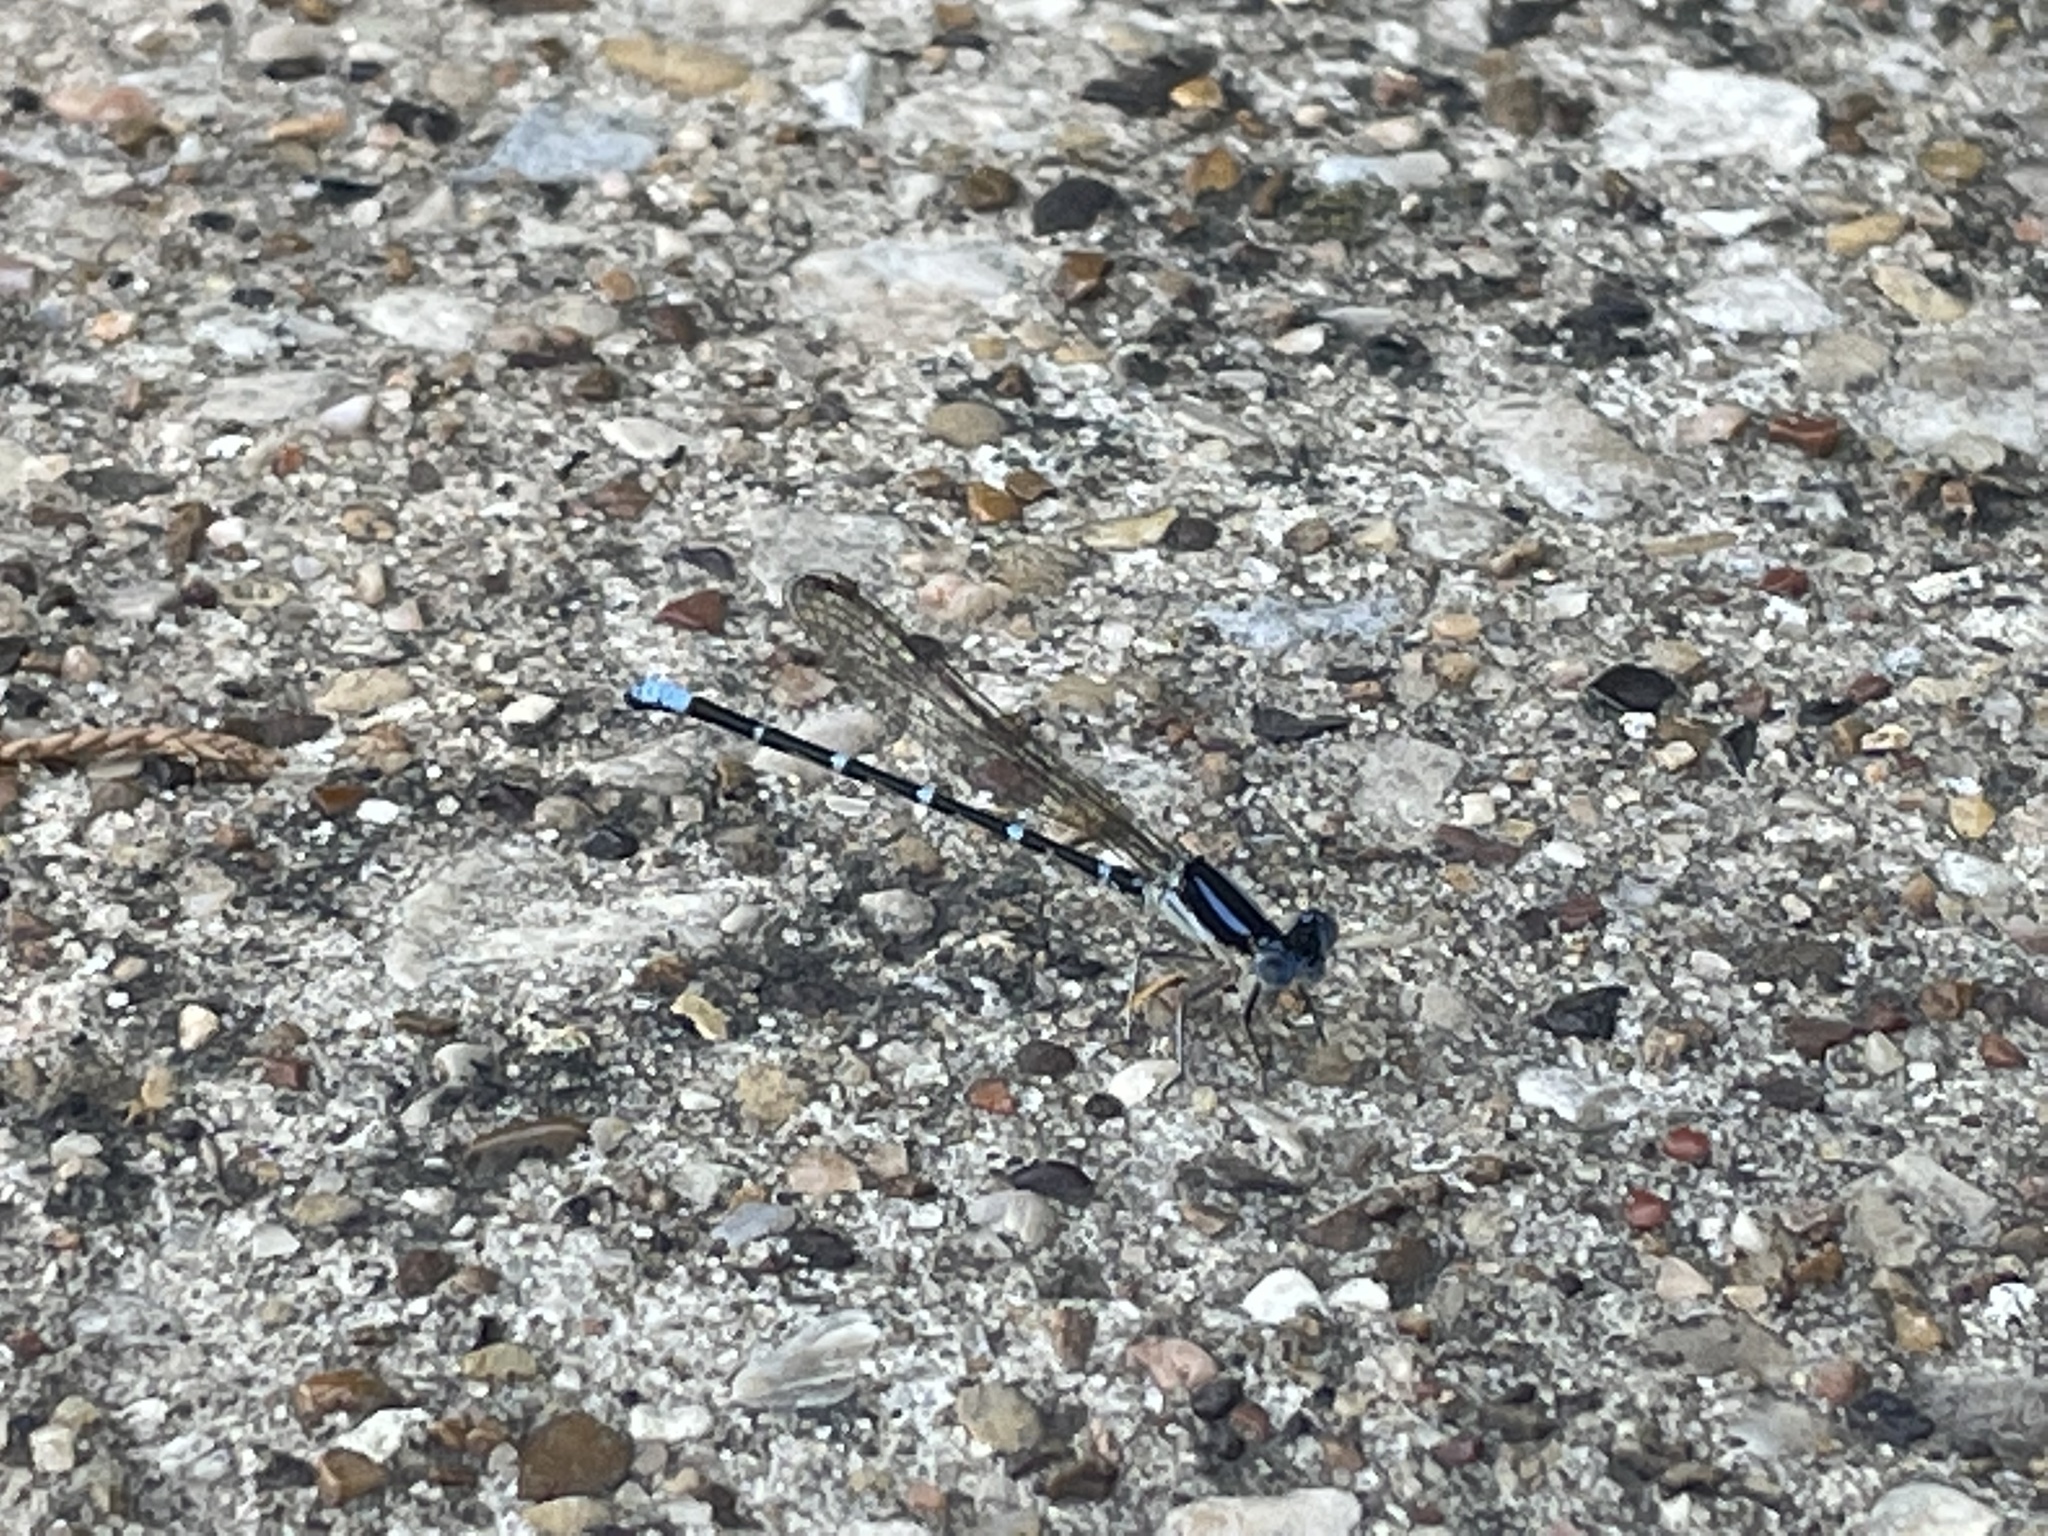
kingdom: Animalia
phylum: Arthropoda
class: Insecta
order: Odonata
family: Coenagrionidae
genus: Argia
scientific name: Argia sedula
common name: Blue-ringed dancer
